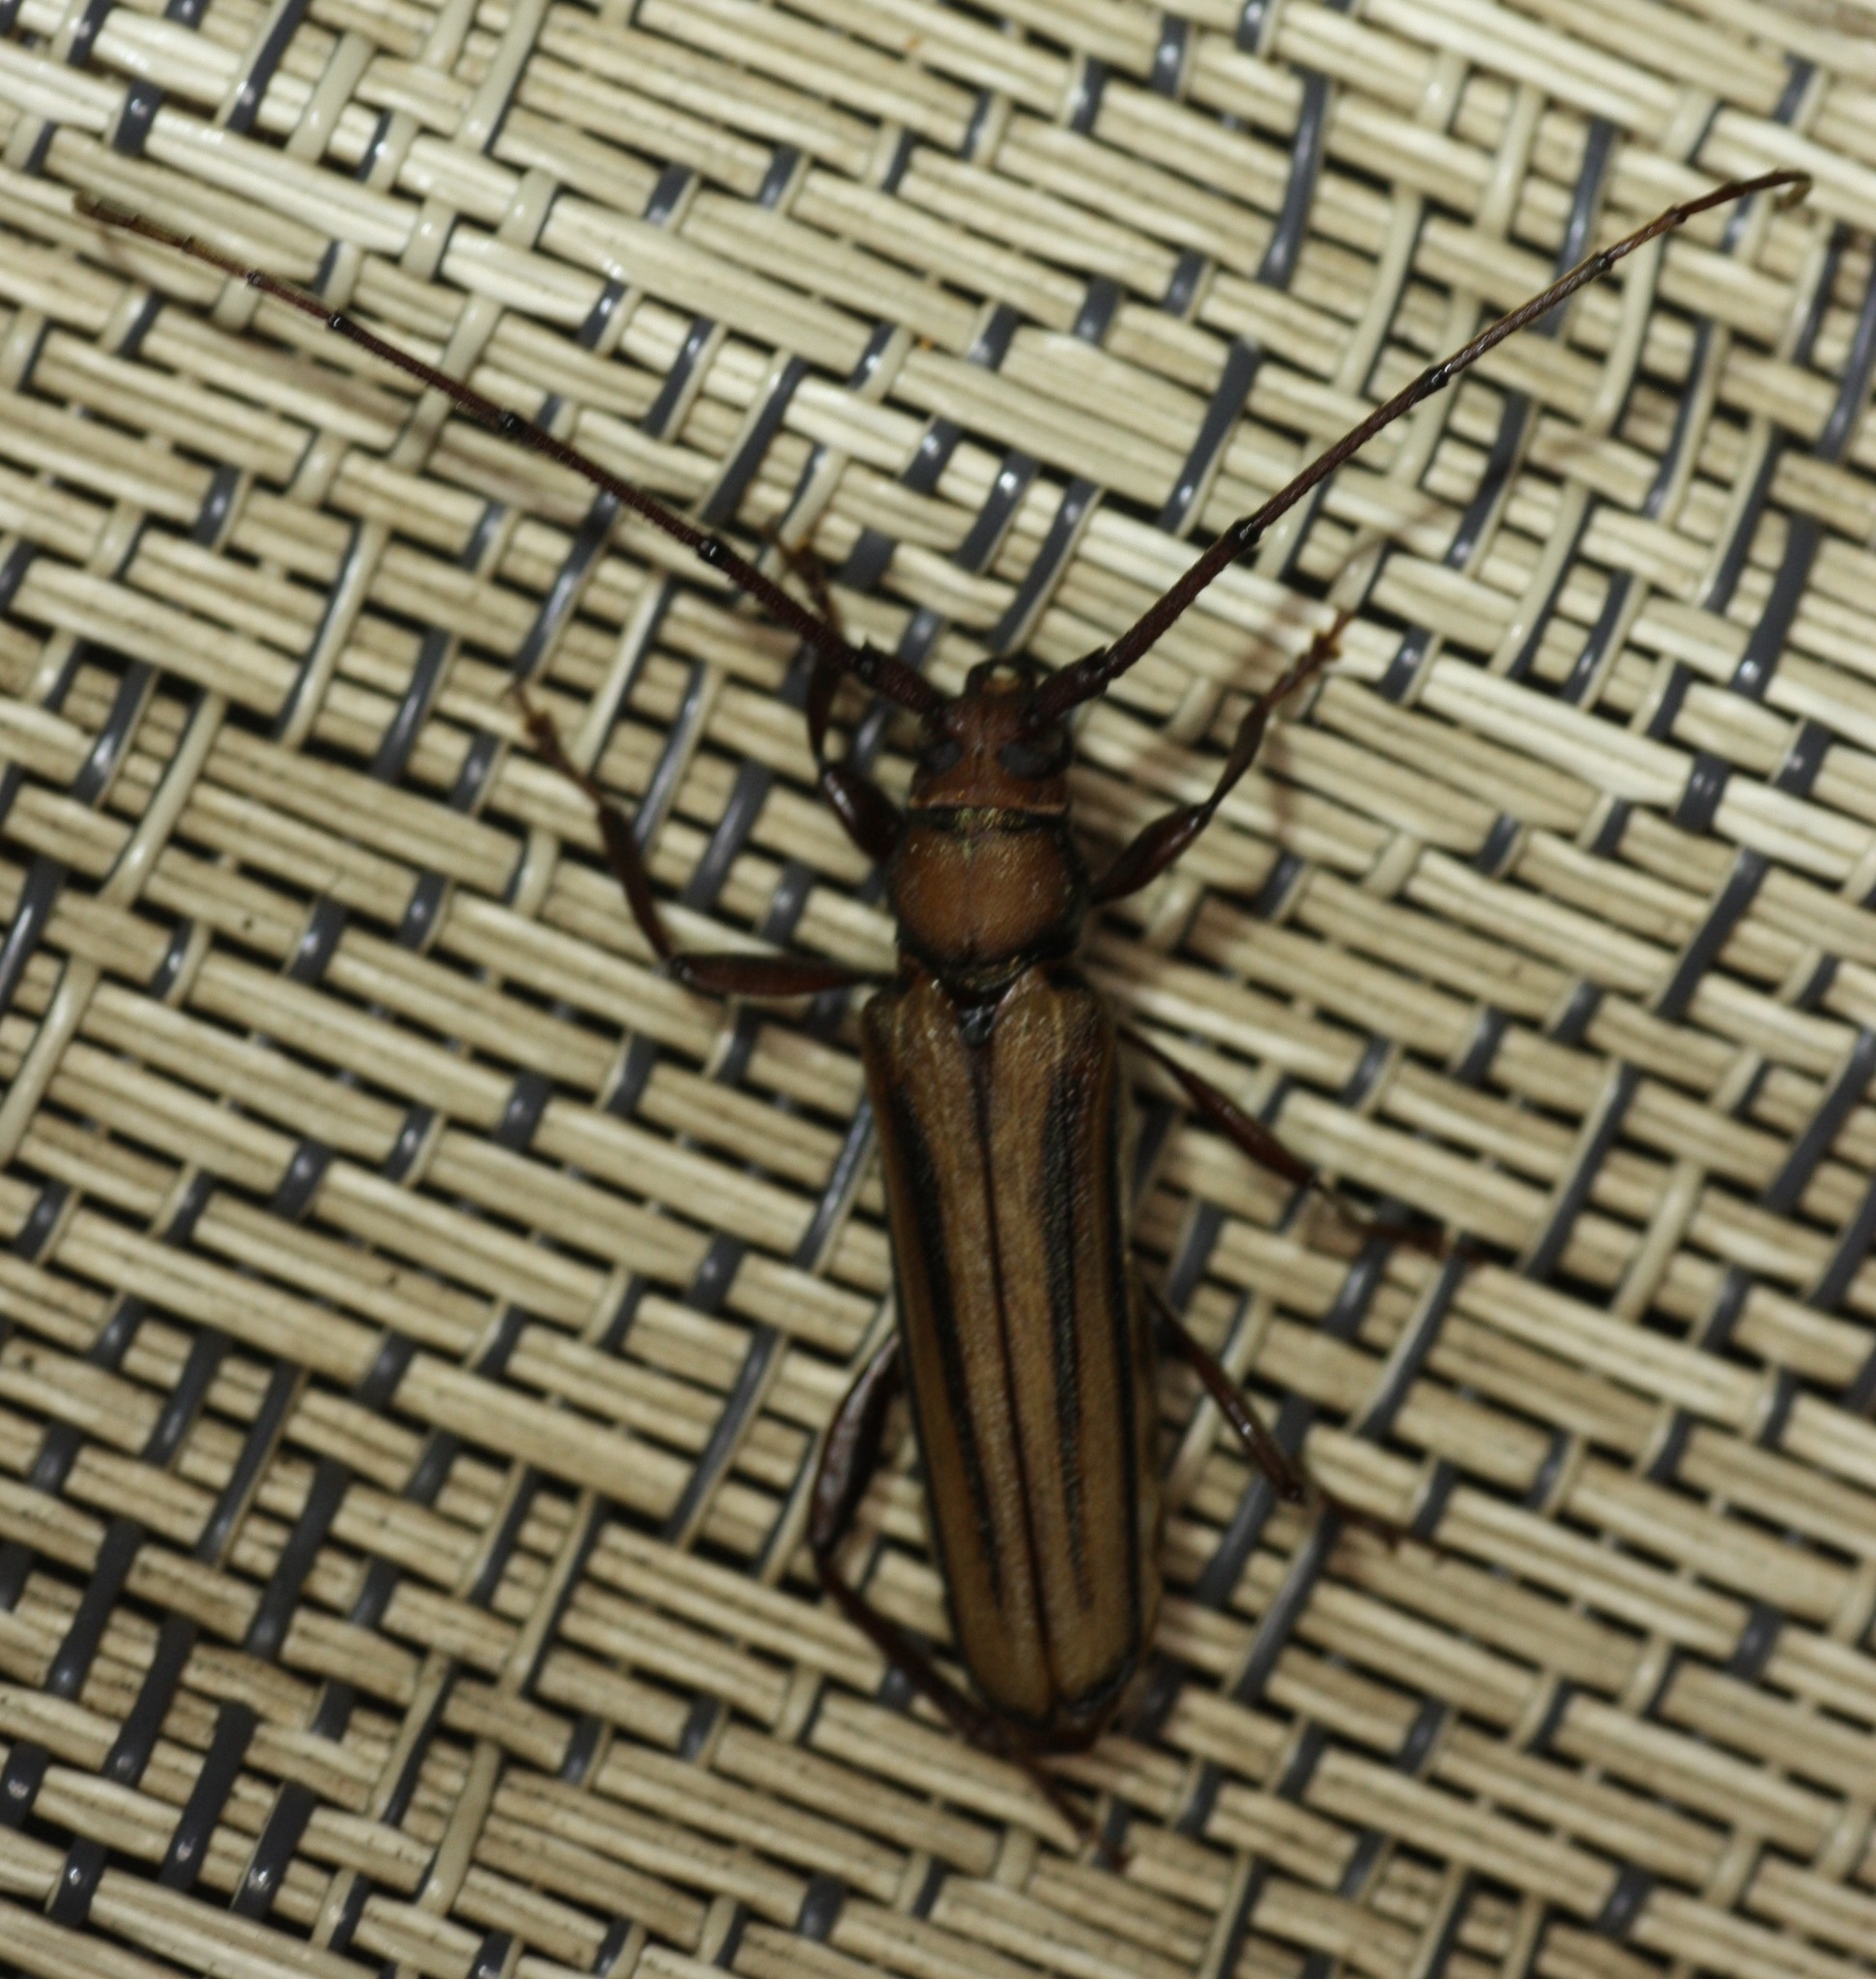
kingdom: Animalia
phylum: Arthropoda
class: Insecta
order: Coleoptera
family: Cerambycidae
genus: Xystrocera
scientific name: Xystrocera globosa
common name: Peach-tree longhorn
